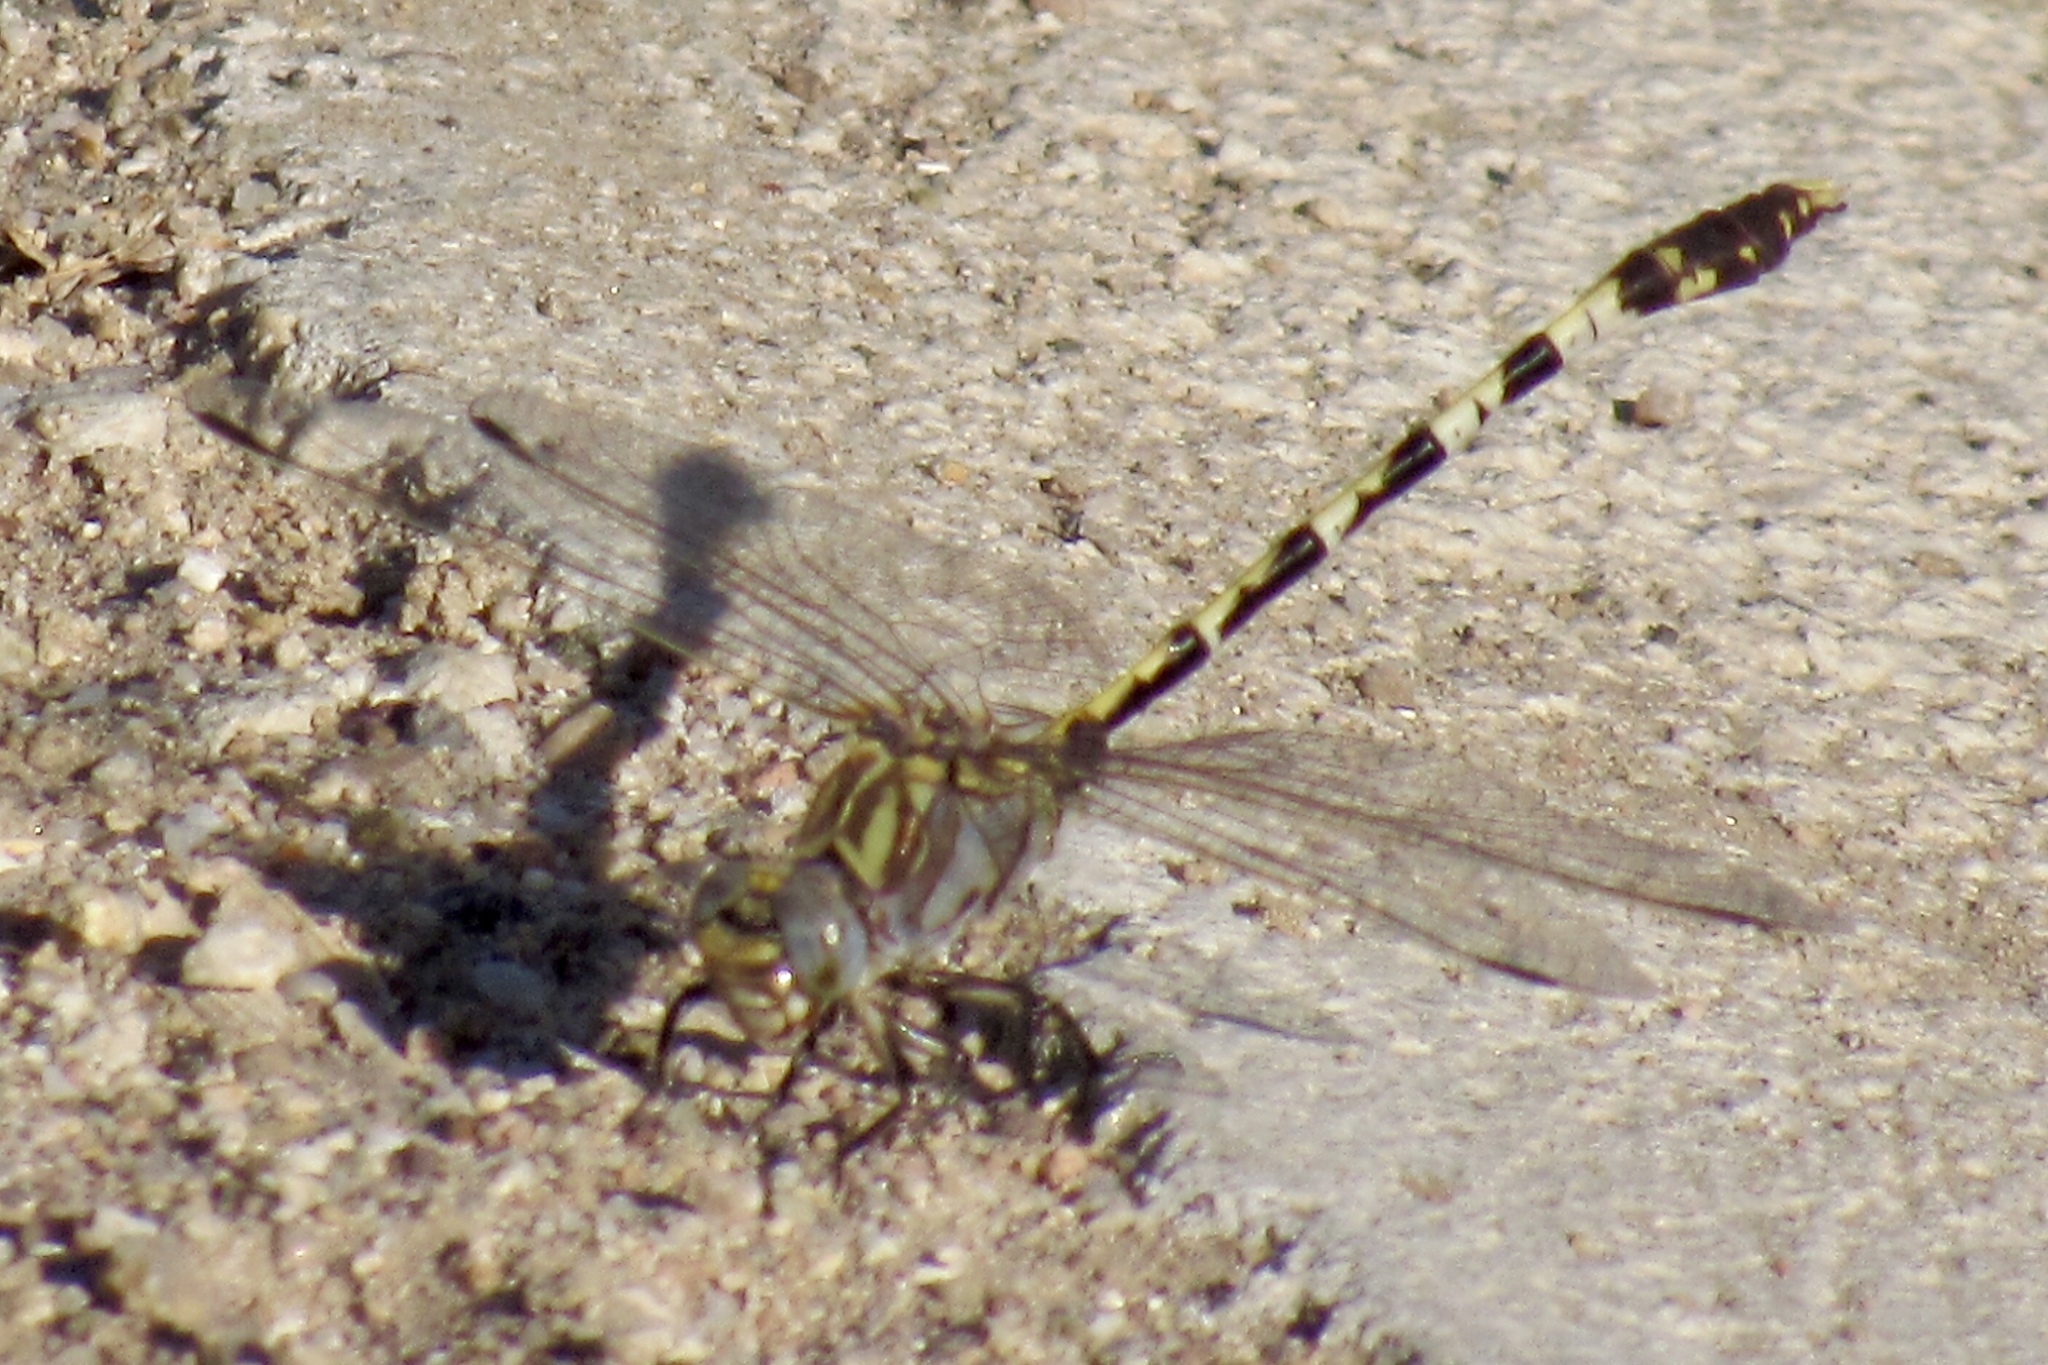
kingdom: Animalia
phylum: Arthropoda
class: Insecta
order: Odonata
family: Gomphidae
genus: Progomphus
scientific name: Progomphus borealis
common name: Gray sanddragon
